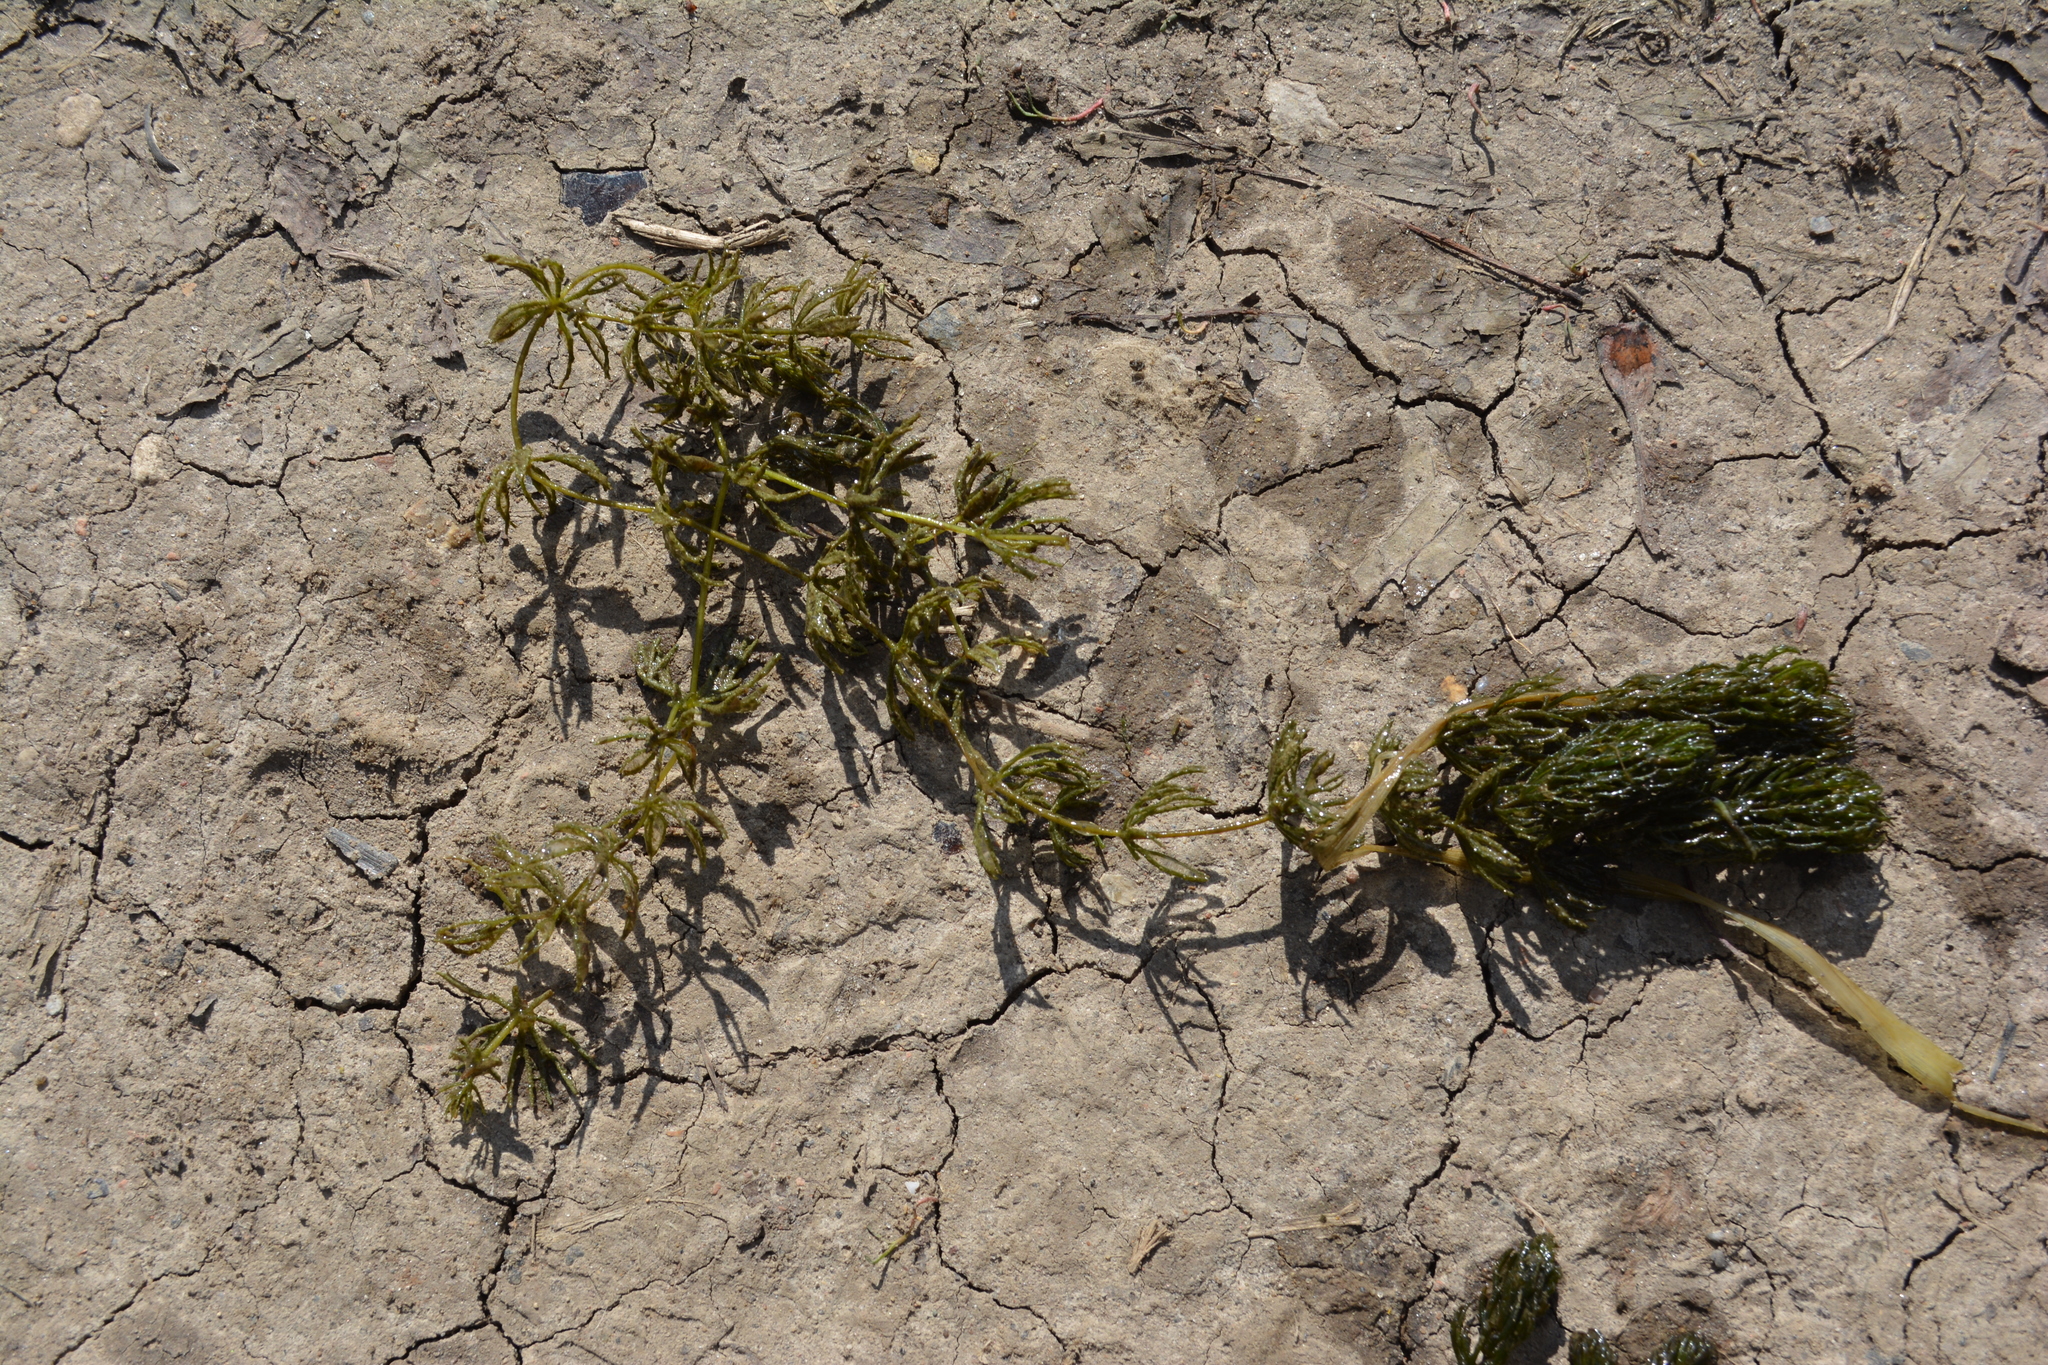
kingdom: Plantae
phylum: Tracheophyta
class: Magnoliopsida
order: Ceratophyllales
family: Ceratophyllaceae
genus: Ceratophyllum
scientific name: Ceratophyllum demersum
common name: Rigid hornwort
